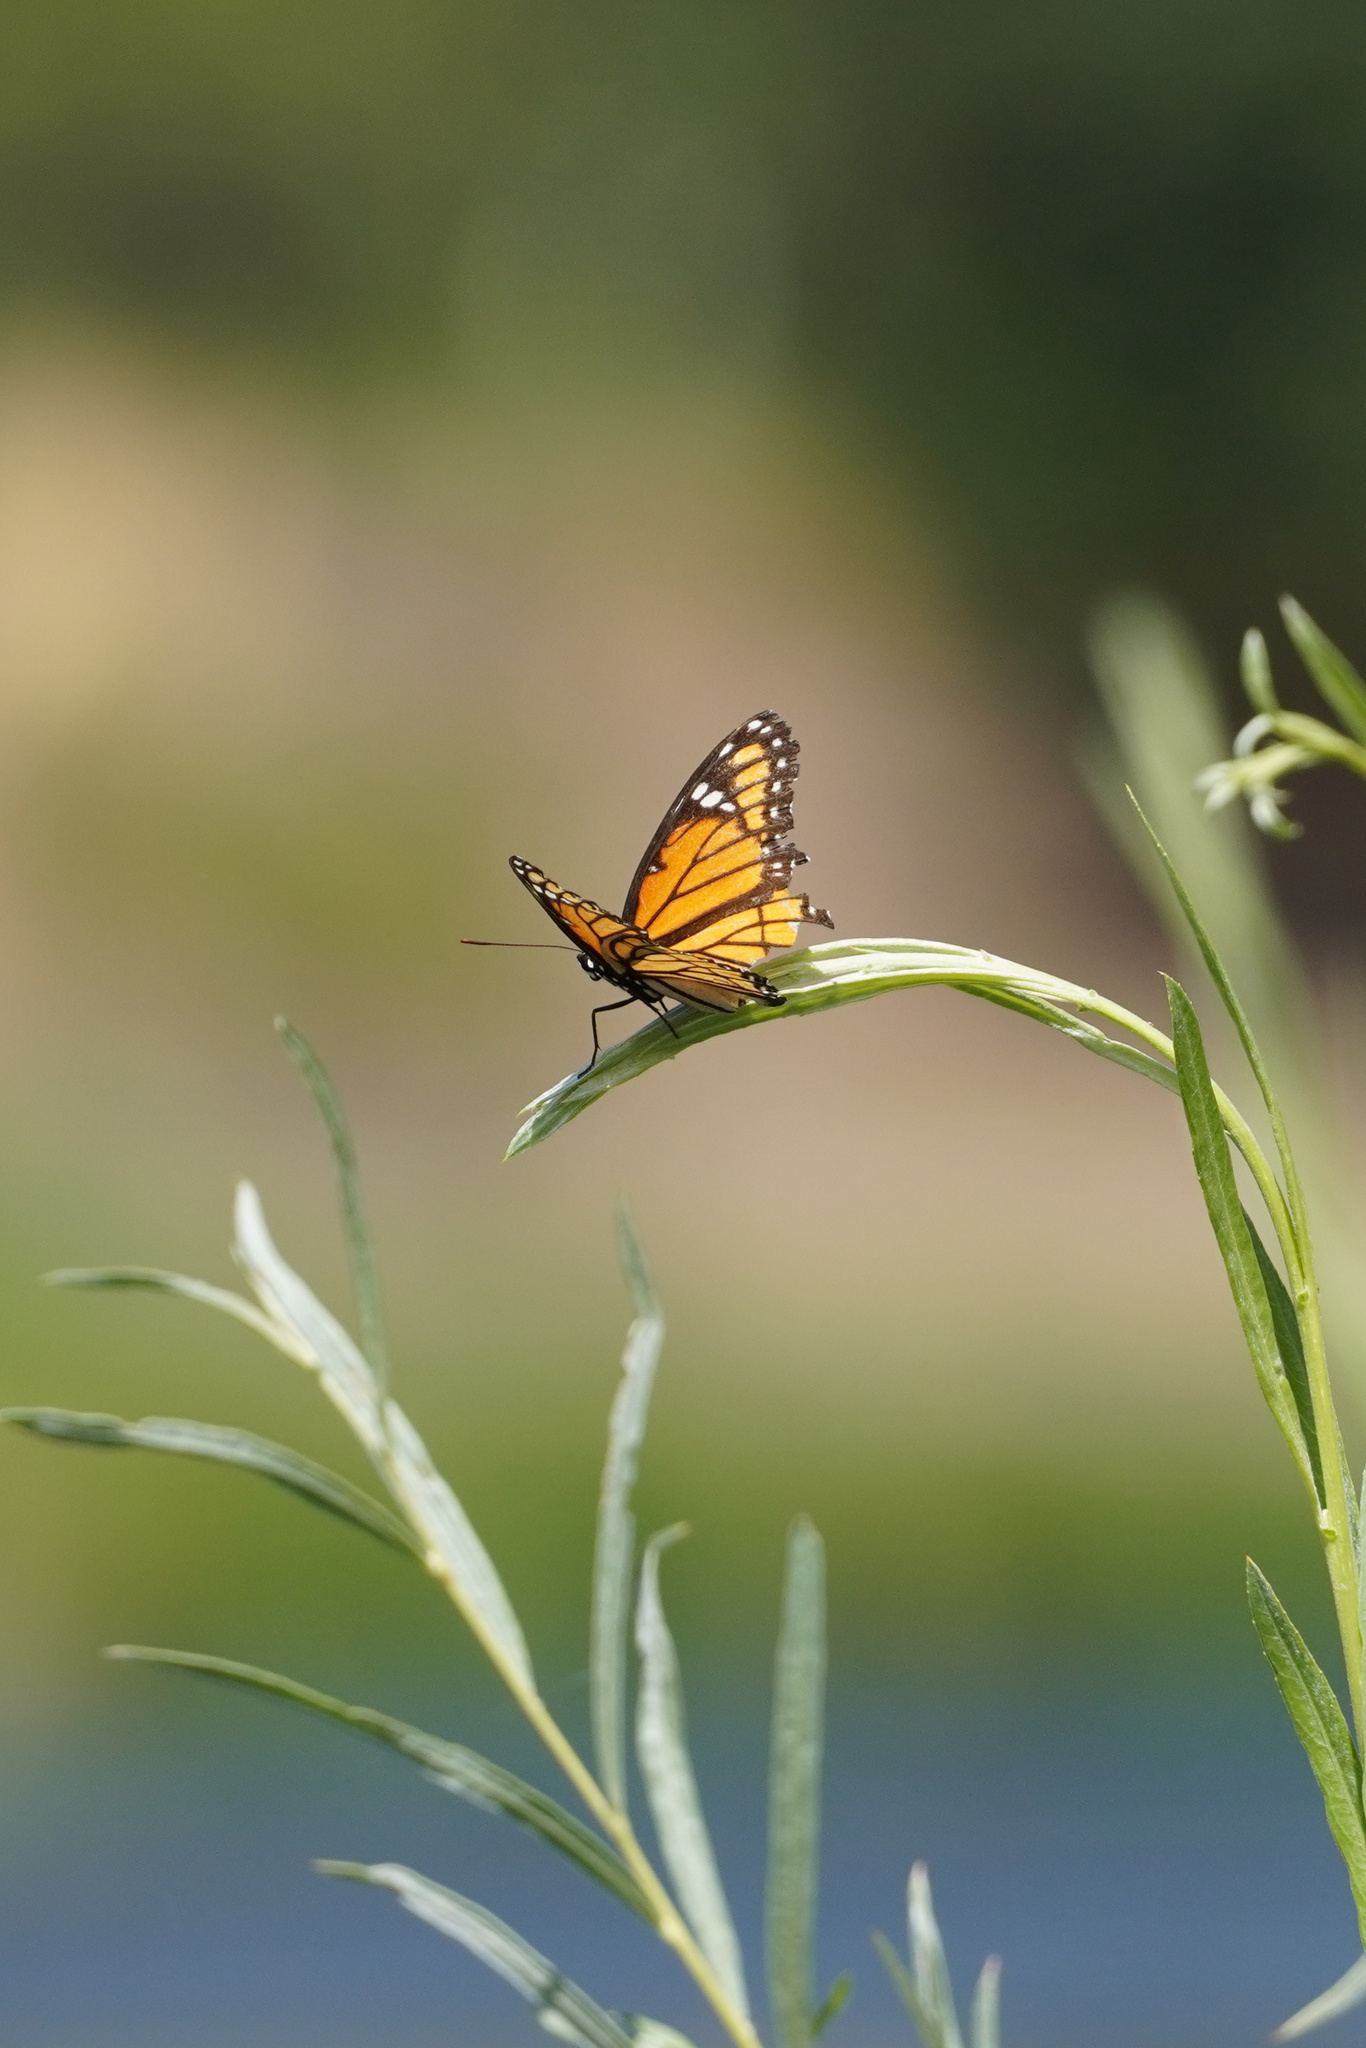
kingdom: Animalia
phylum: Arthropoda
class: Insecta
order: Lepidoptera
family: Nymphalidae
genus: Limenitis
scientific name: Limenitis archippus
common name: Viceroy
